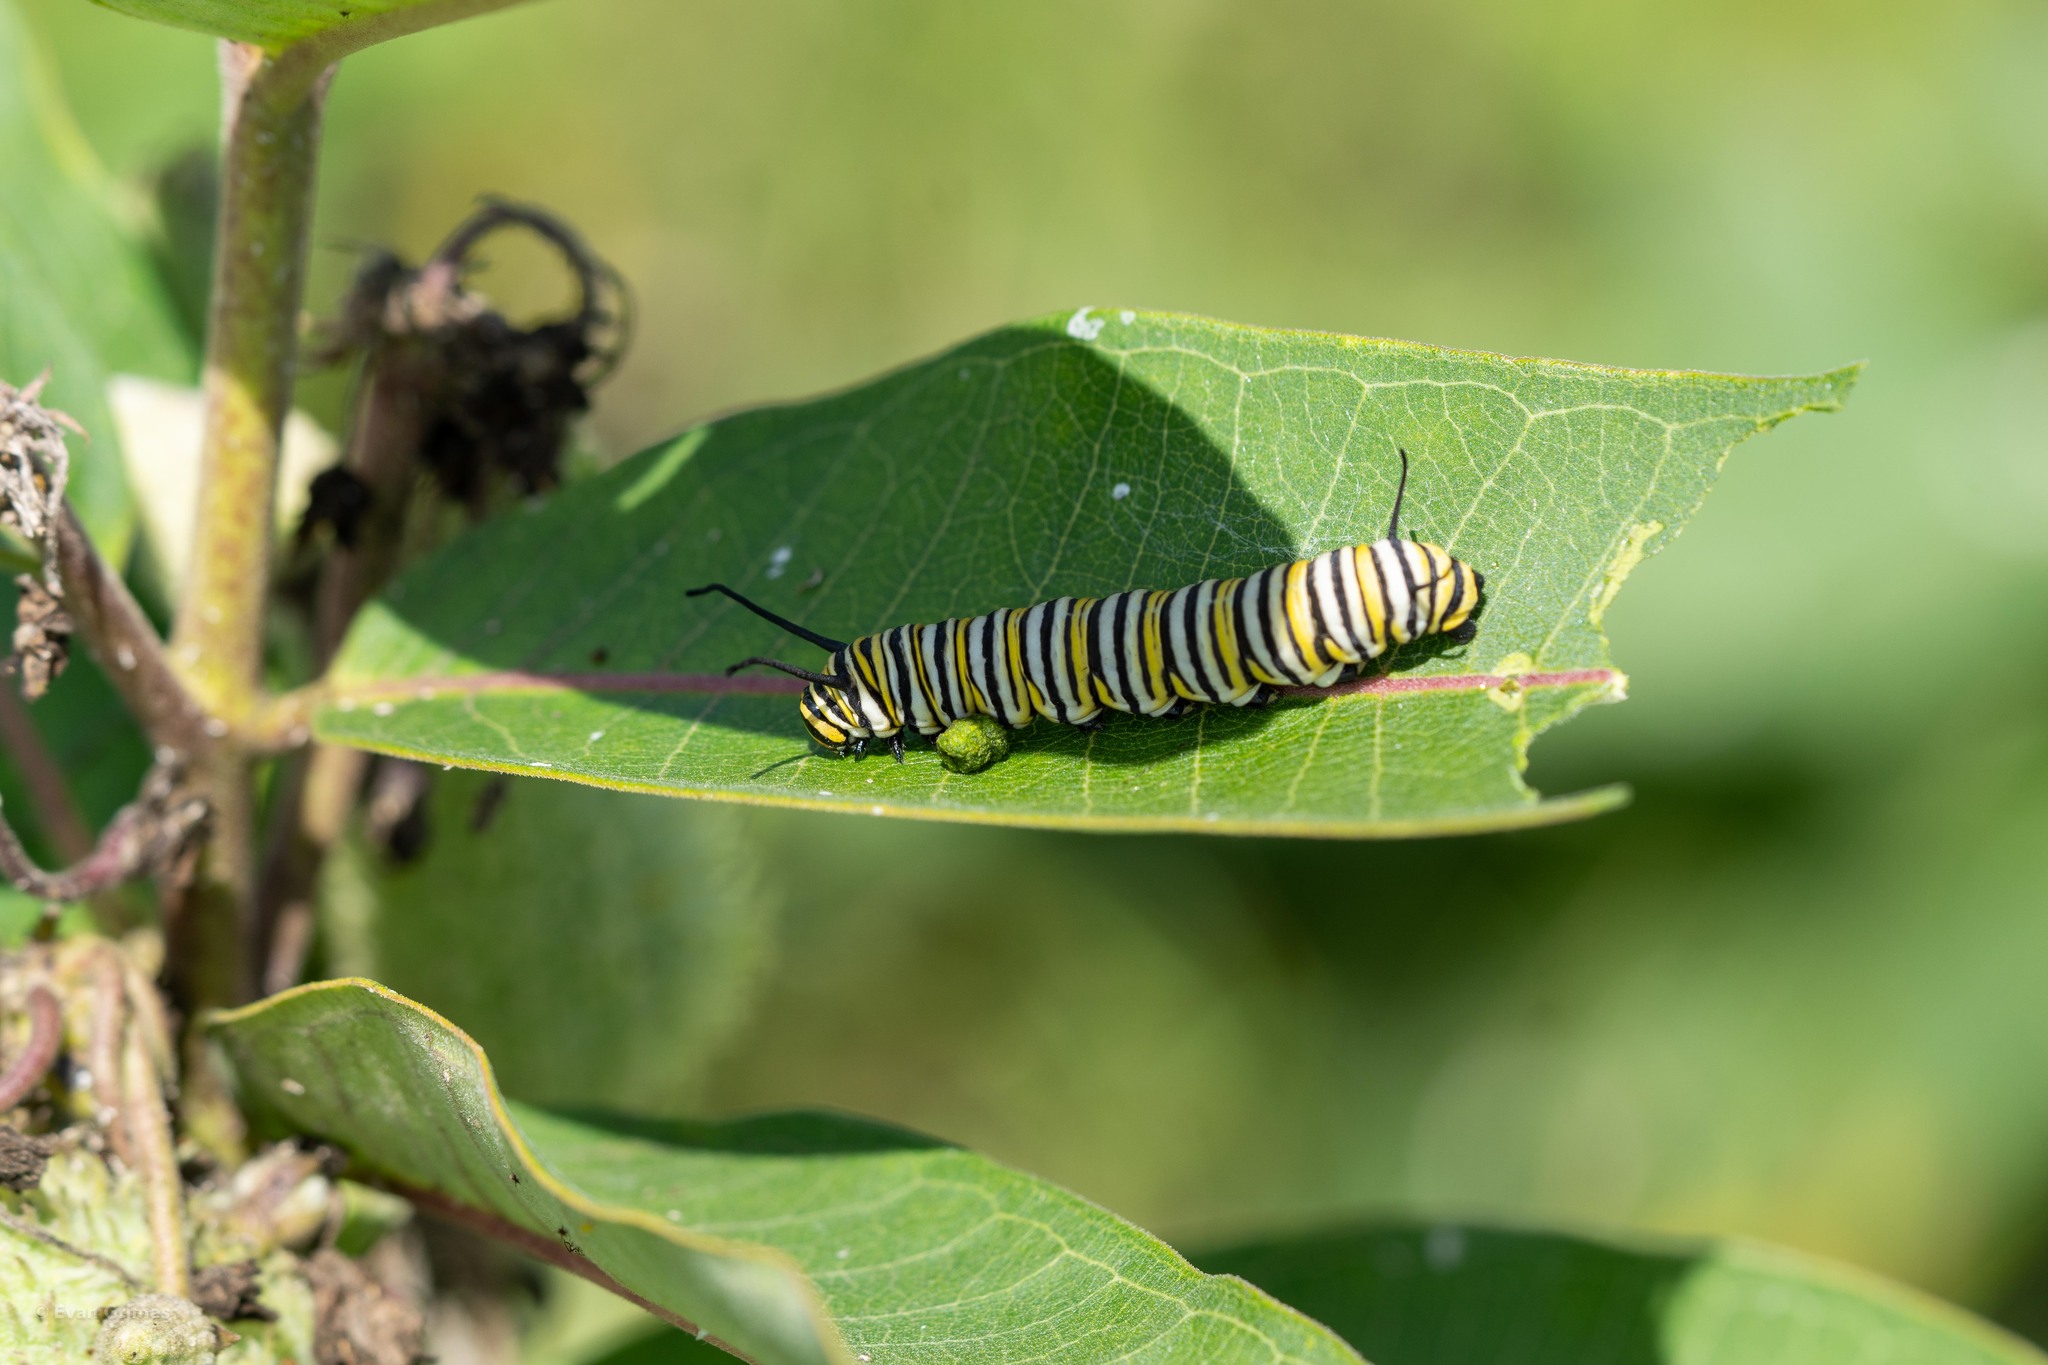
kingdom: Animalia
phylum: Arthropoda
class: Insecta
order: Lepidoptera
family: Nymphalidae
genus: Danaus
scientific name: Danaus plexippus
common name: Monarch
